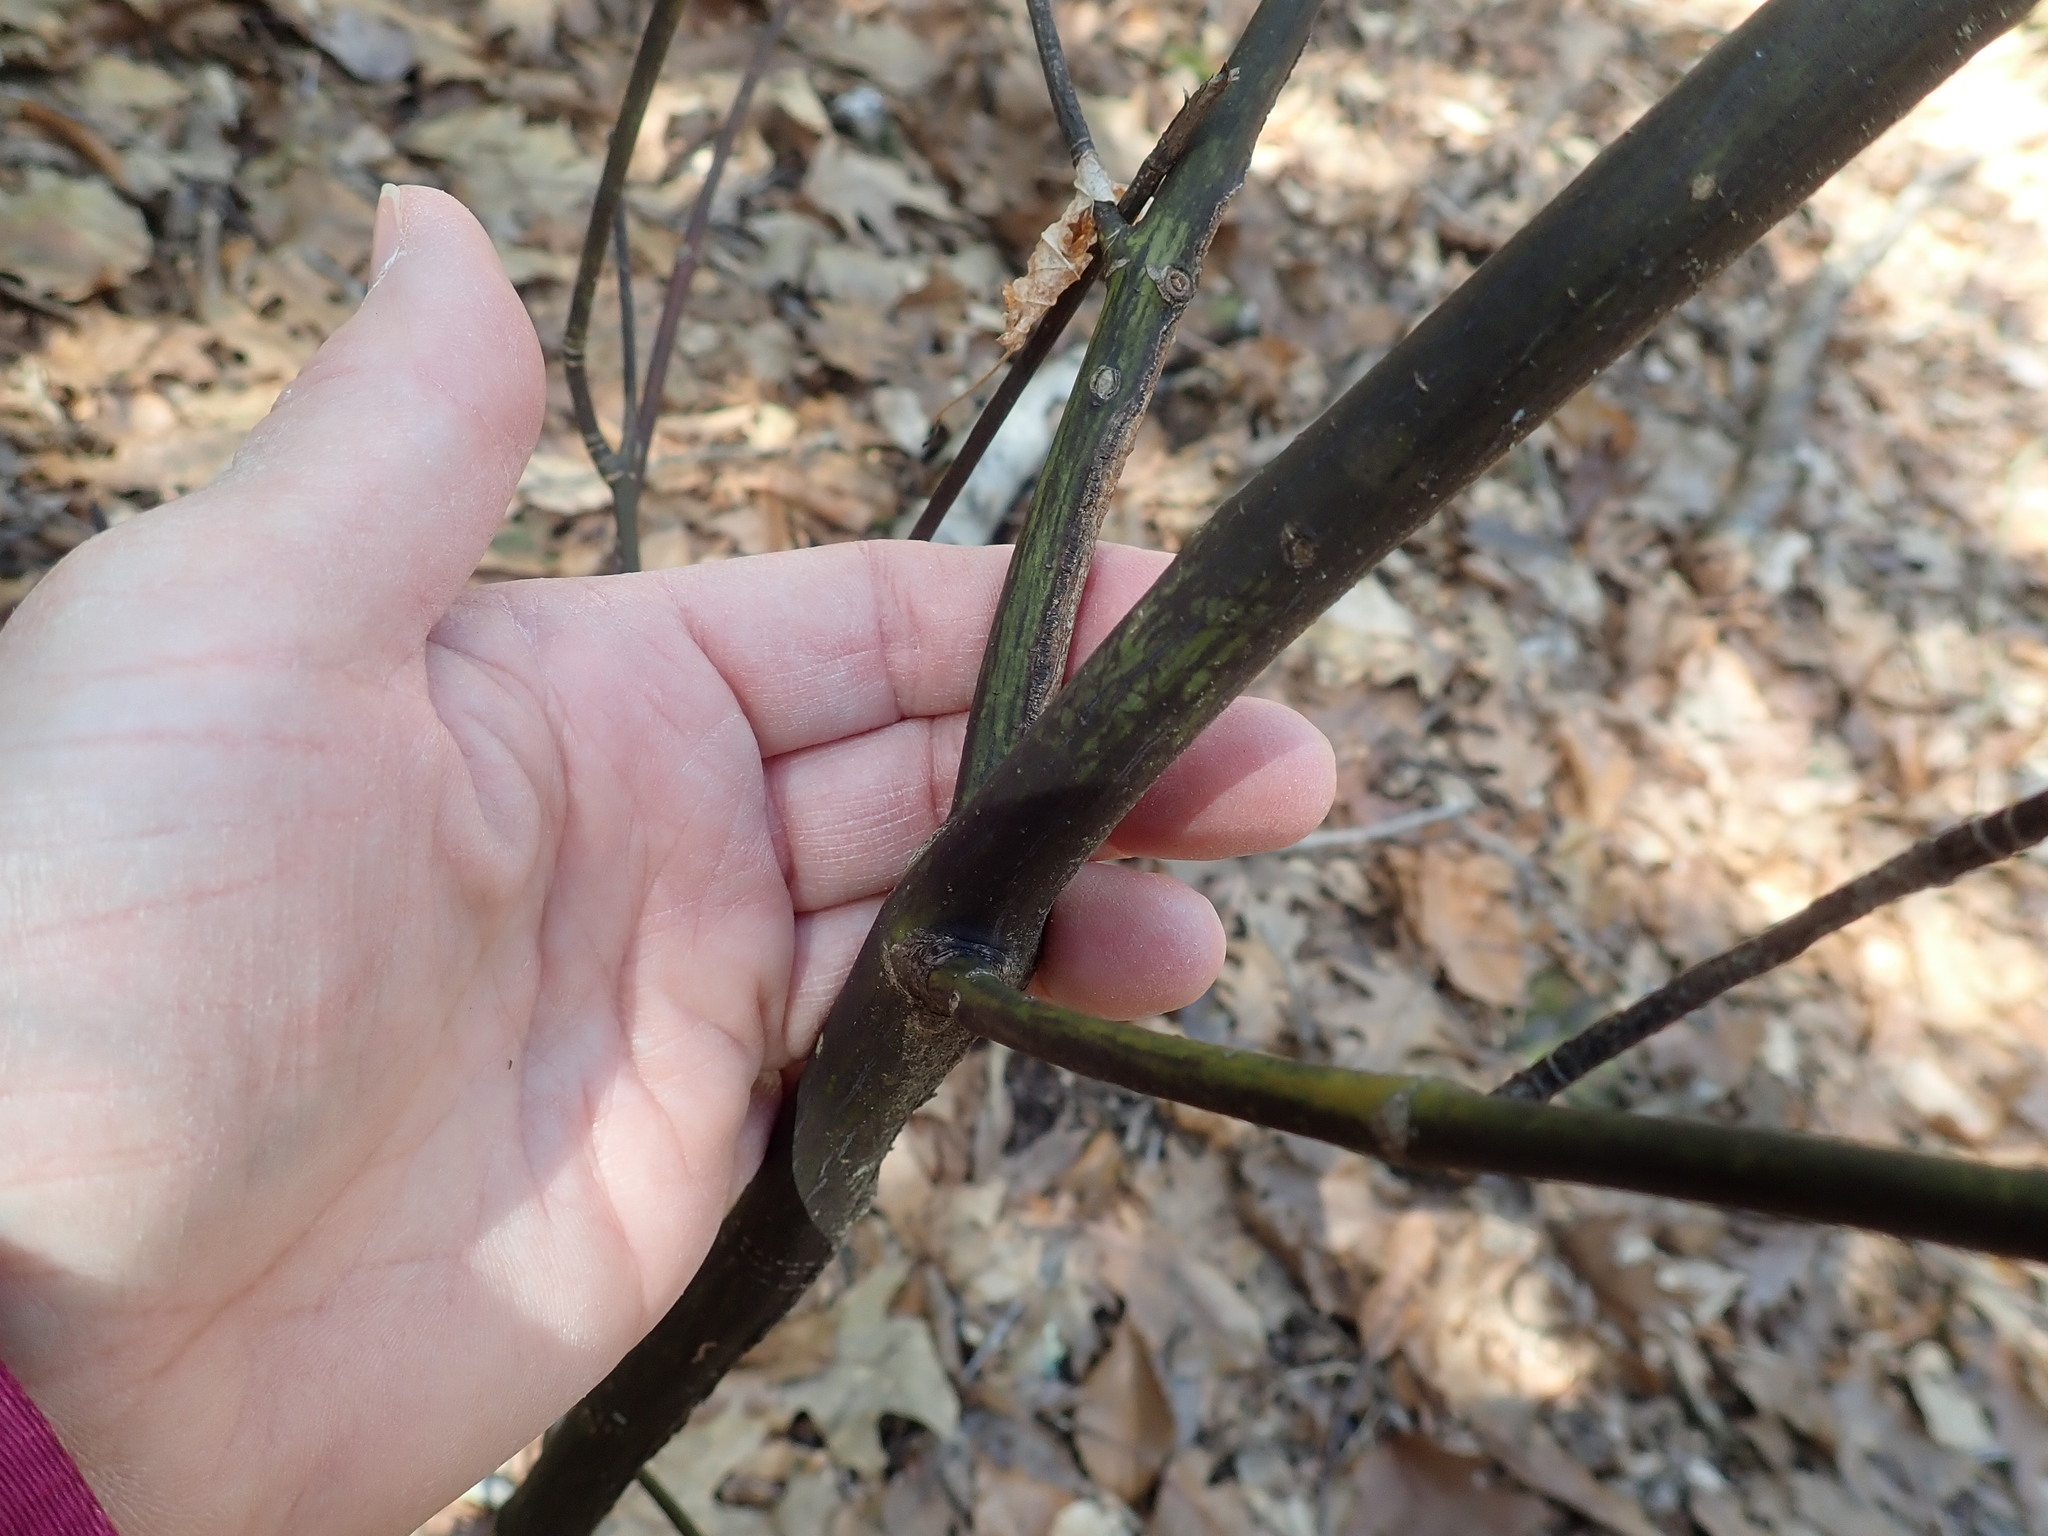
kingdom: Plantae
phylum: Tracheophyta
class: Magnoliopsida
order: Sapindales
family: Sapindaceae
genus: Acer
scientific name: Acer pensylvanicum
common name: Moosewood
